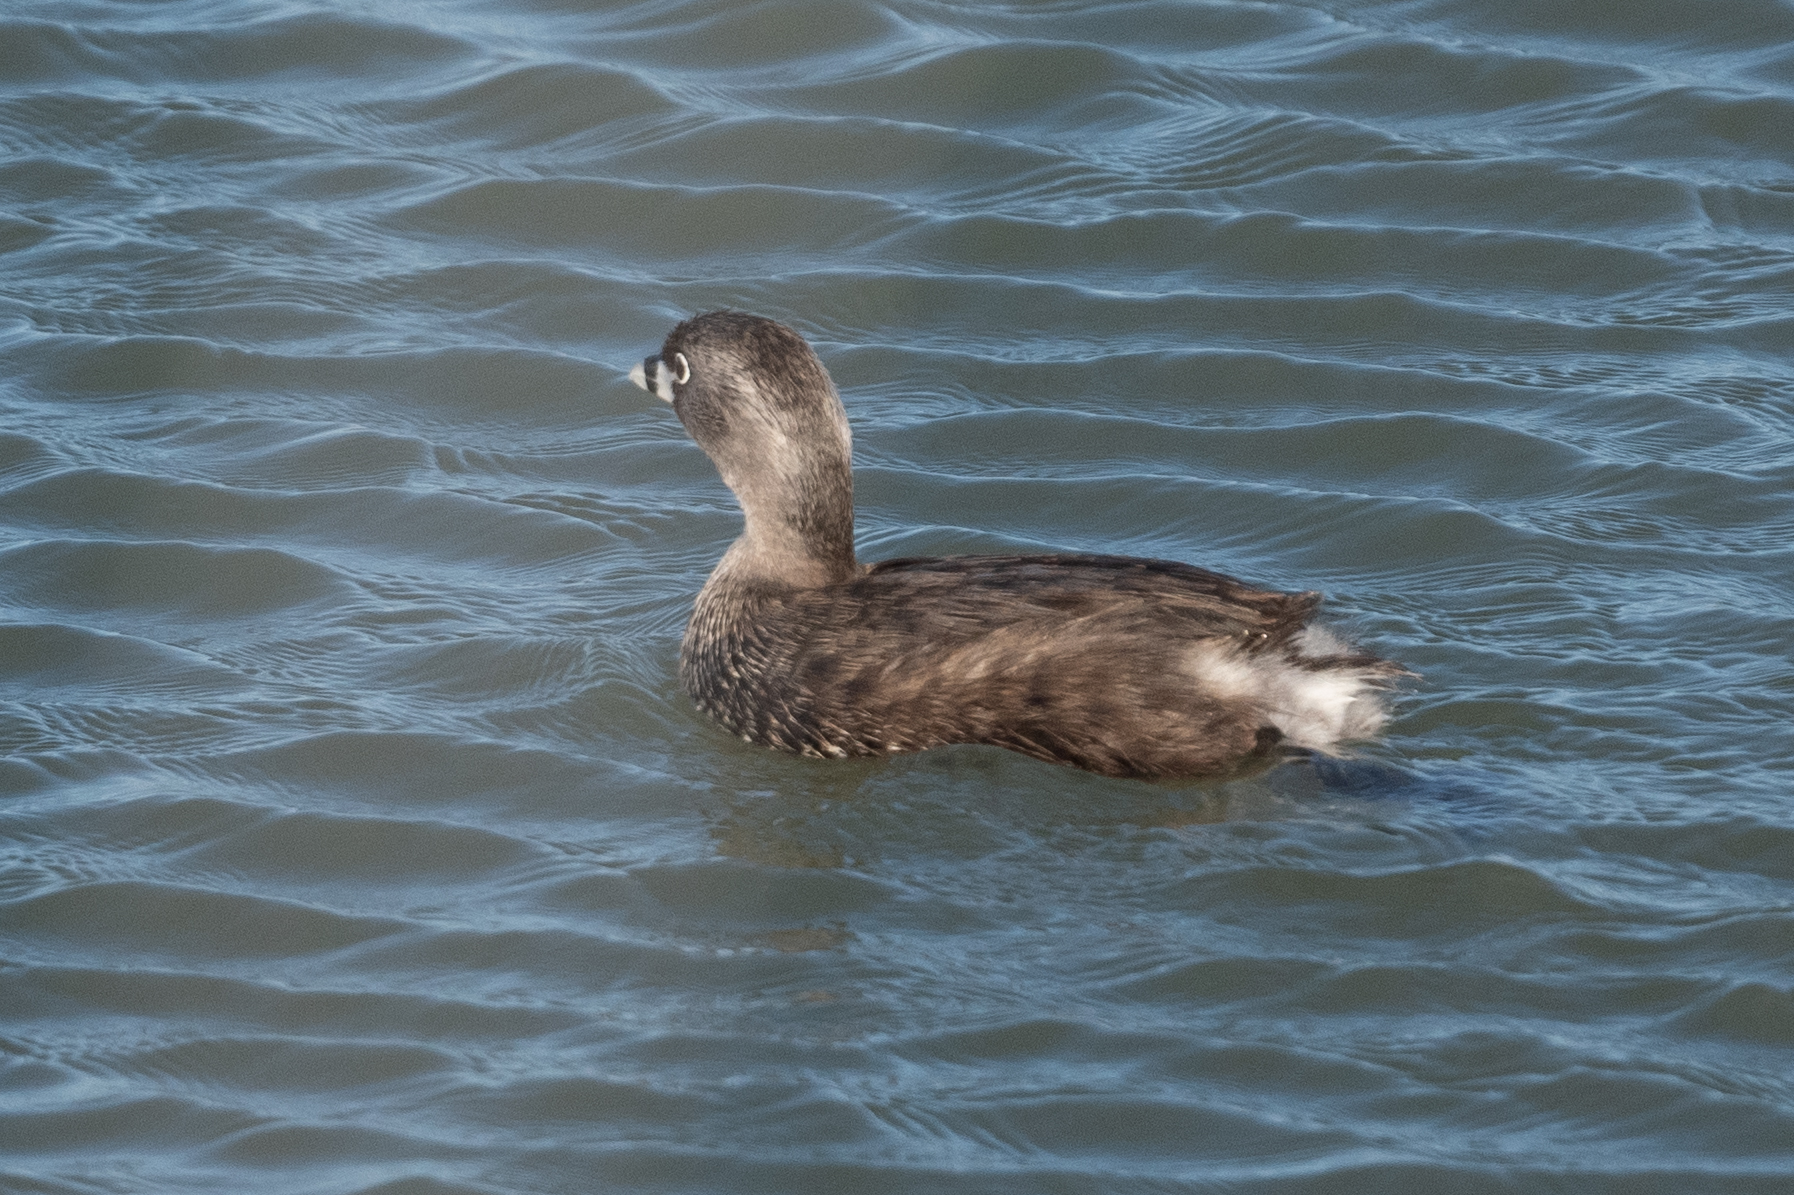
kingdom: Animalia
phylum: Chordata
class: Aves
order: Podicipediformes
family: Podicipedidae
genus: Podilymbus
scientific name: Podilymbus podiceps
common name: Pied-billed grebe
